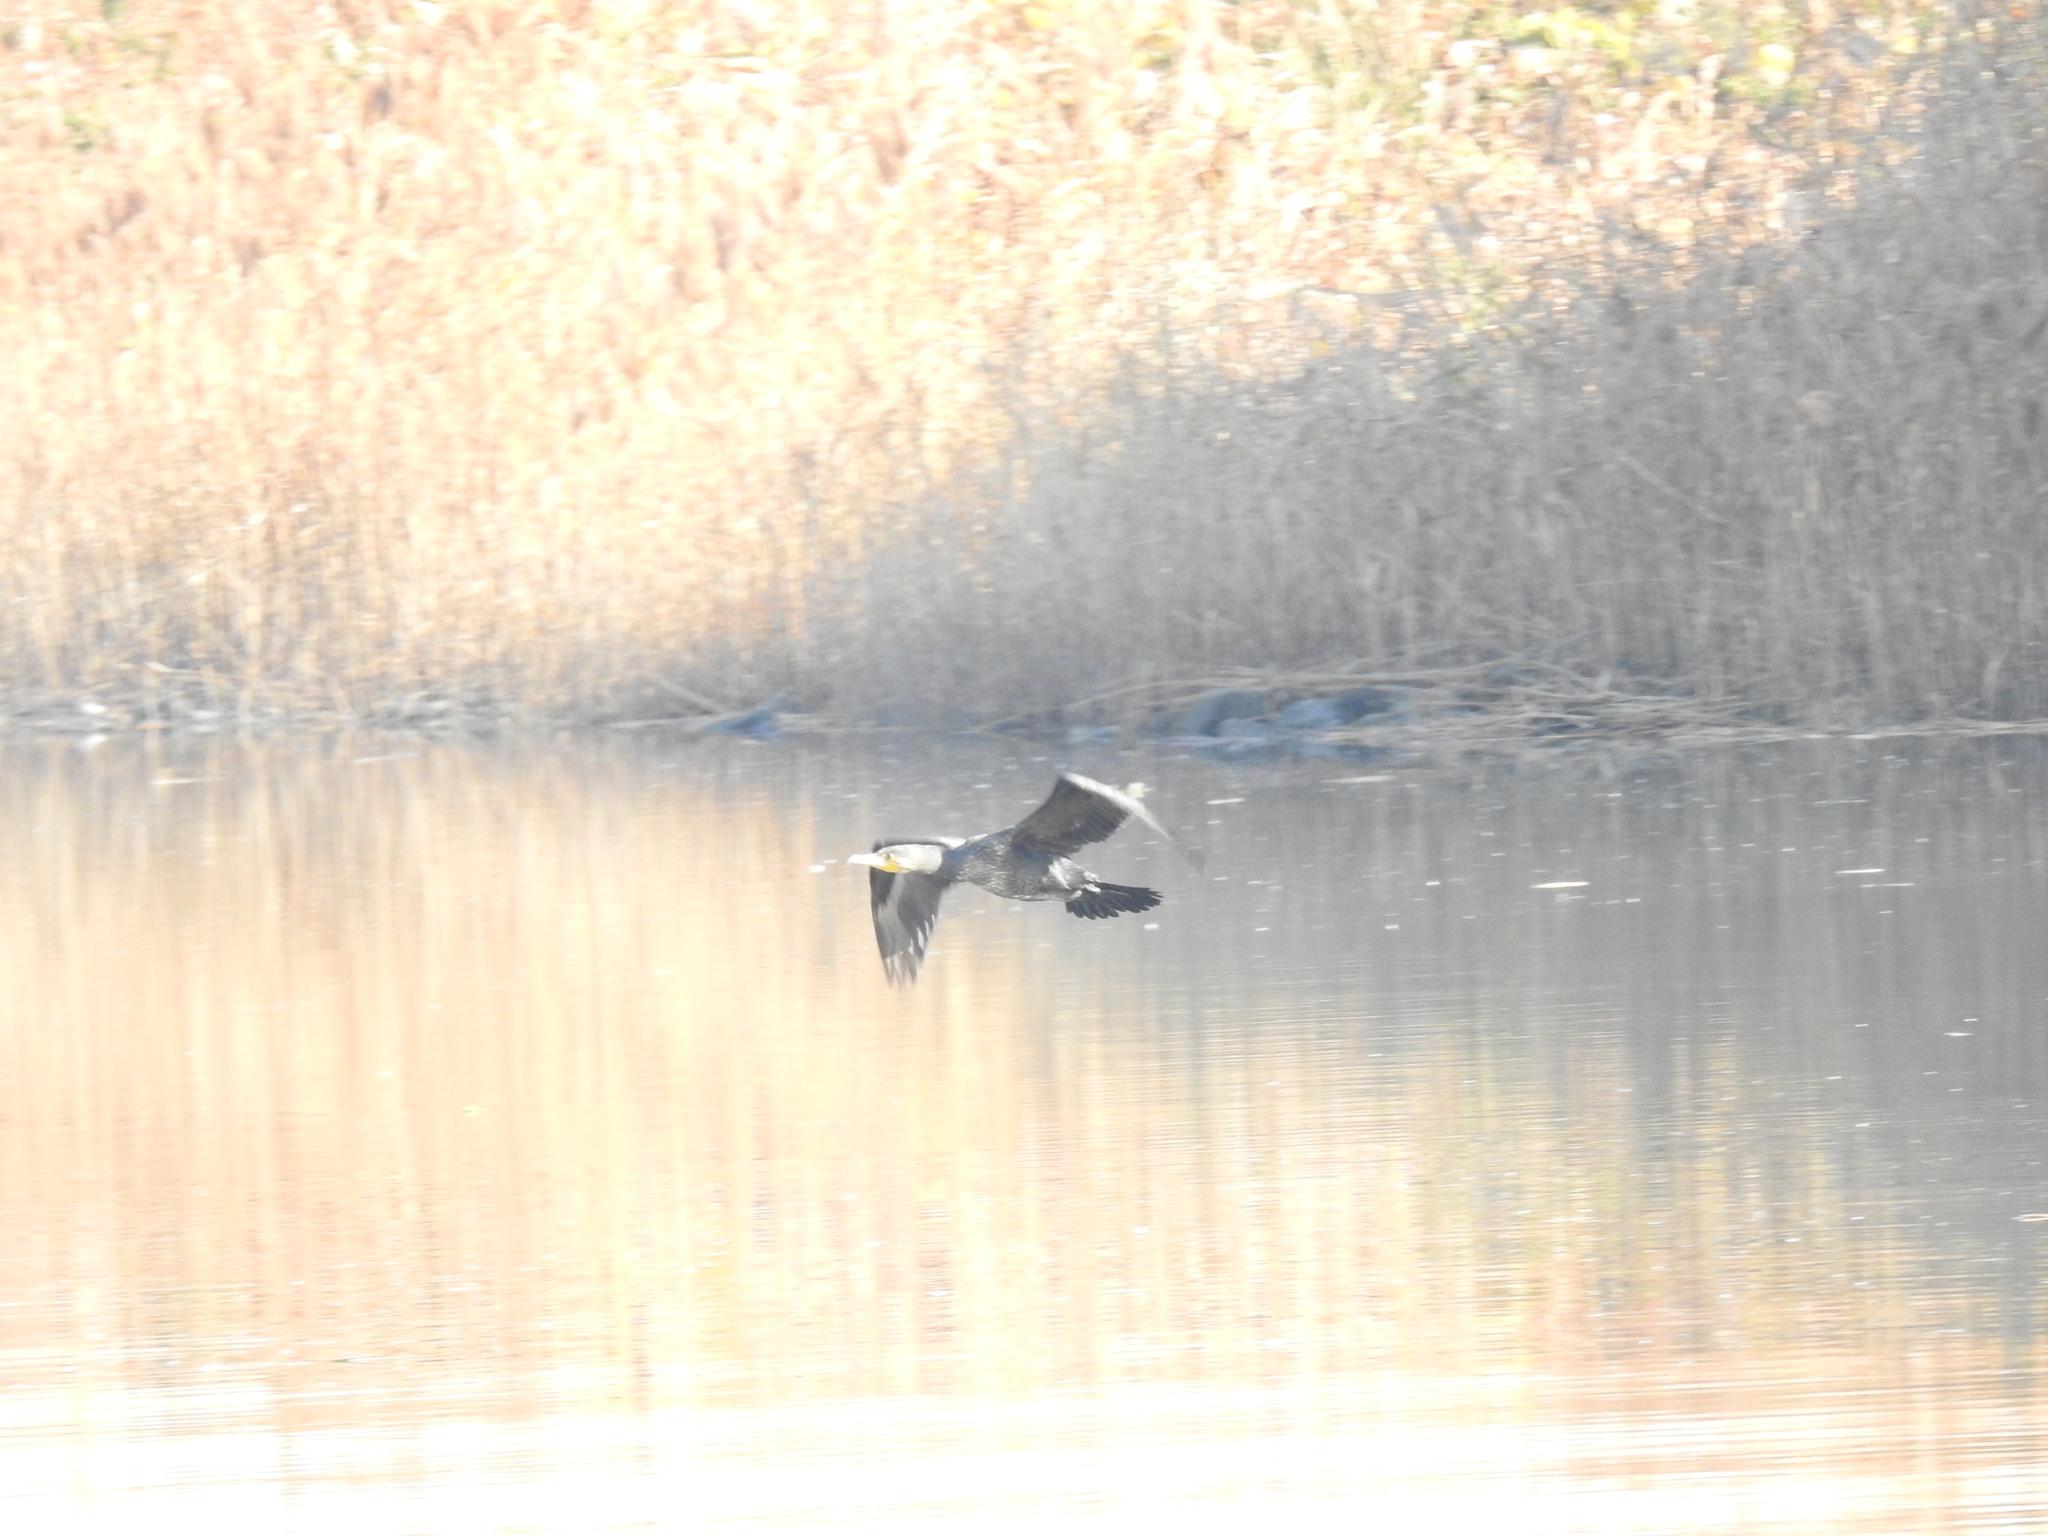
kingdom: Animalia
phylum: Chordata
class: Aves
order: Suliformes
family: Phalacrocoracidae
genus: Phalacrocorax
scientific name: Phalacrocorax carbo
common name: Great cormorant
